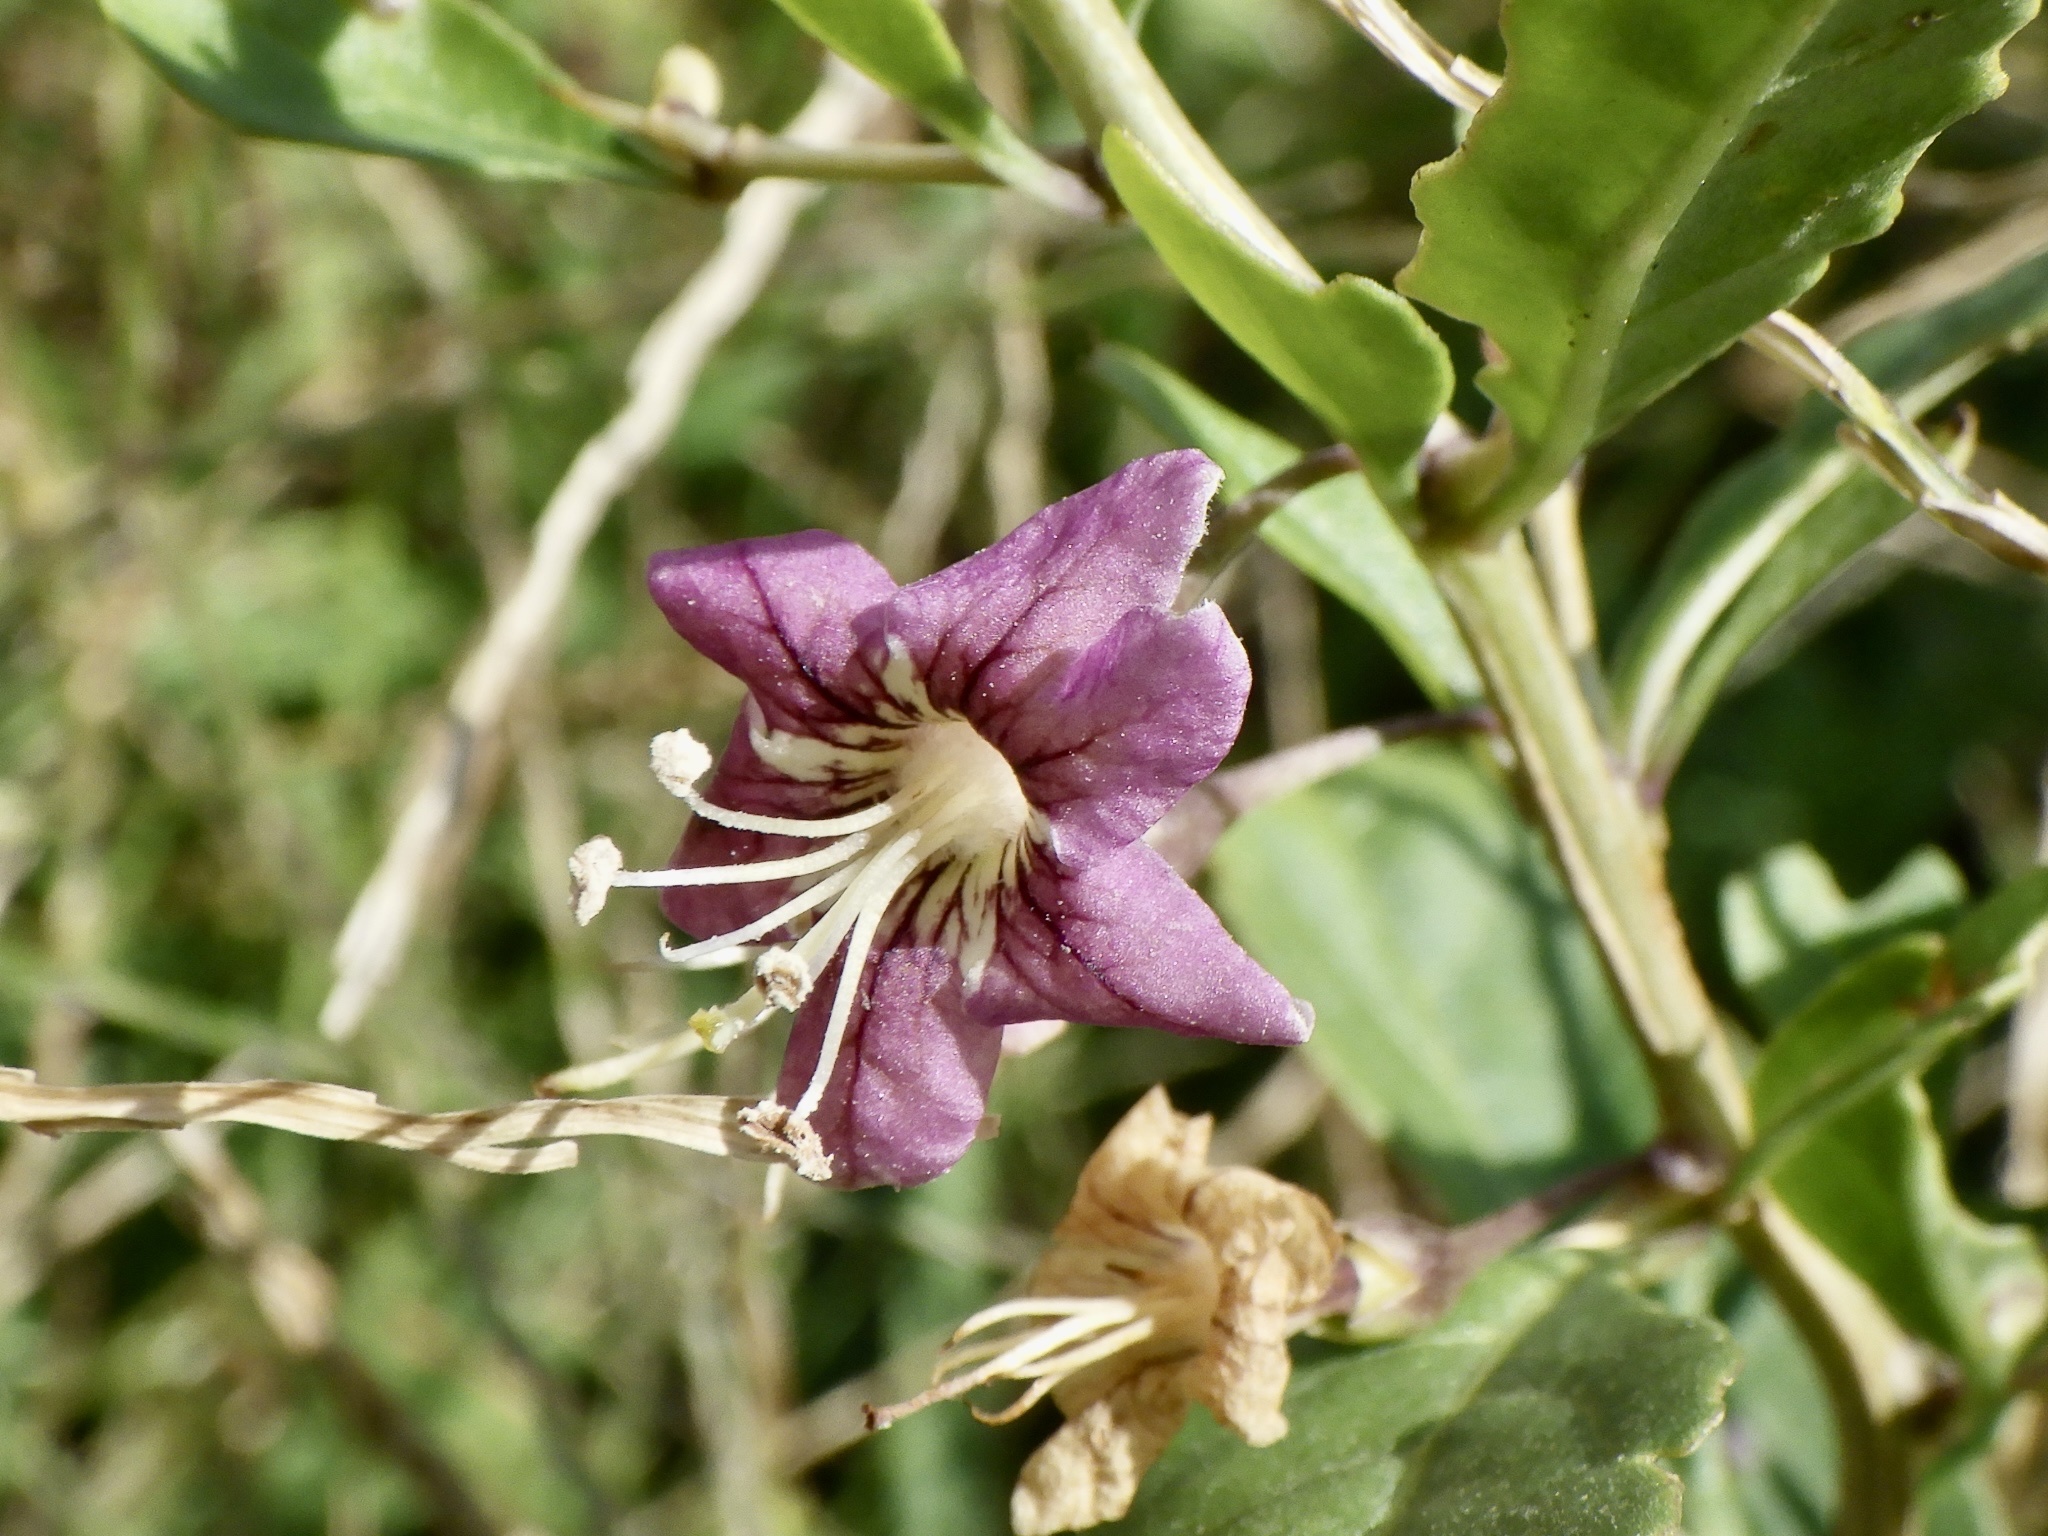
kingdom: Plantae
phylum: Tracheophyta
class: Magnoliopsida
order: Solanales
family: Solanaceae
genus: Lycium
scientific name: Lycium chinense
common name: Chinese teaplant
